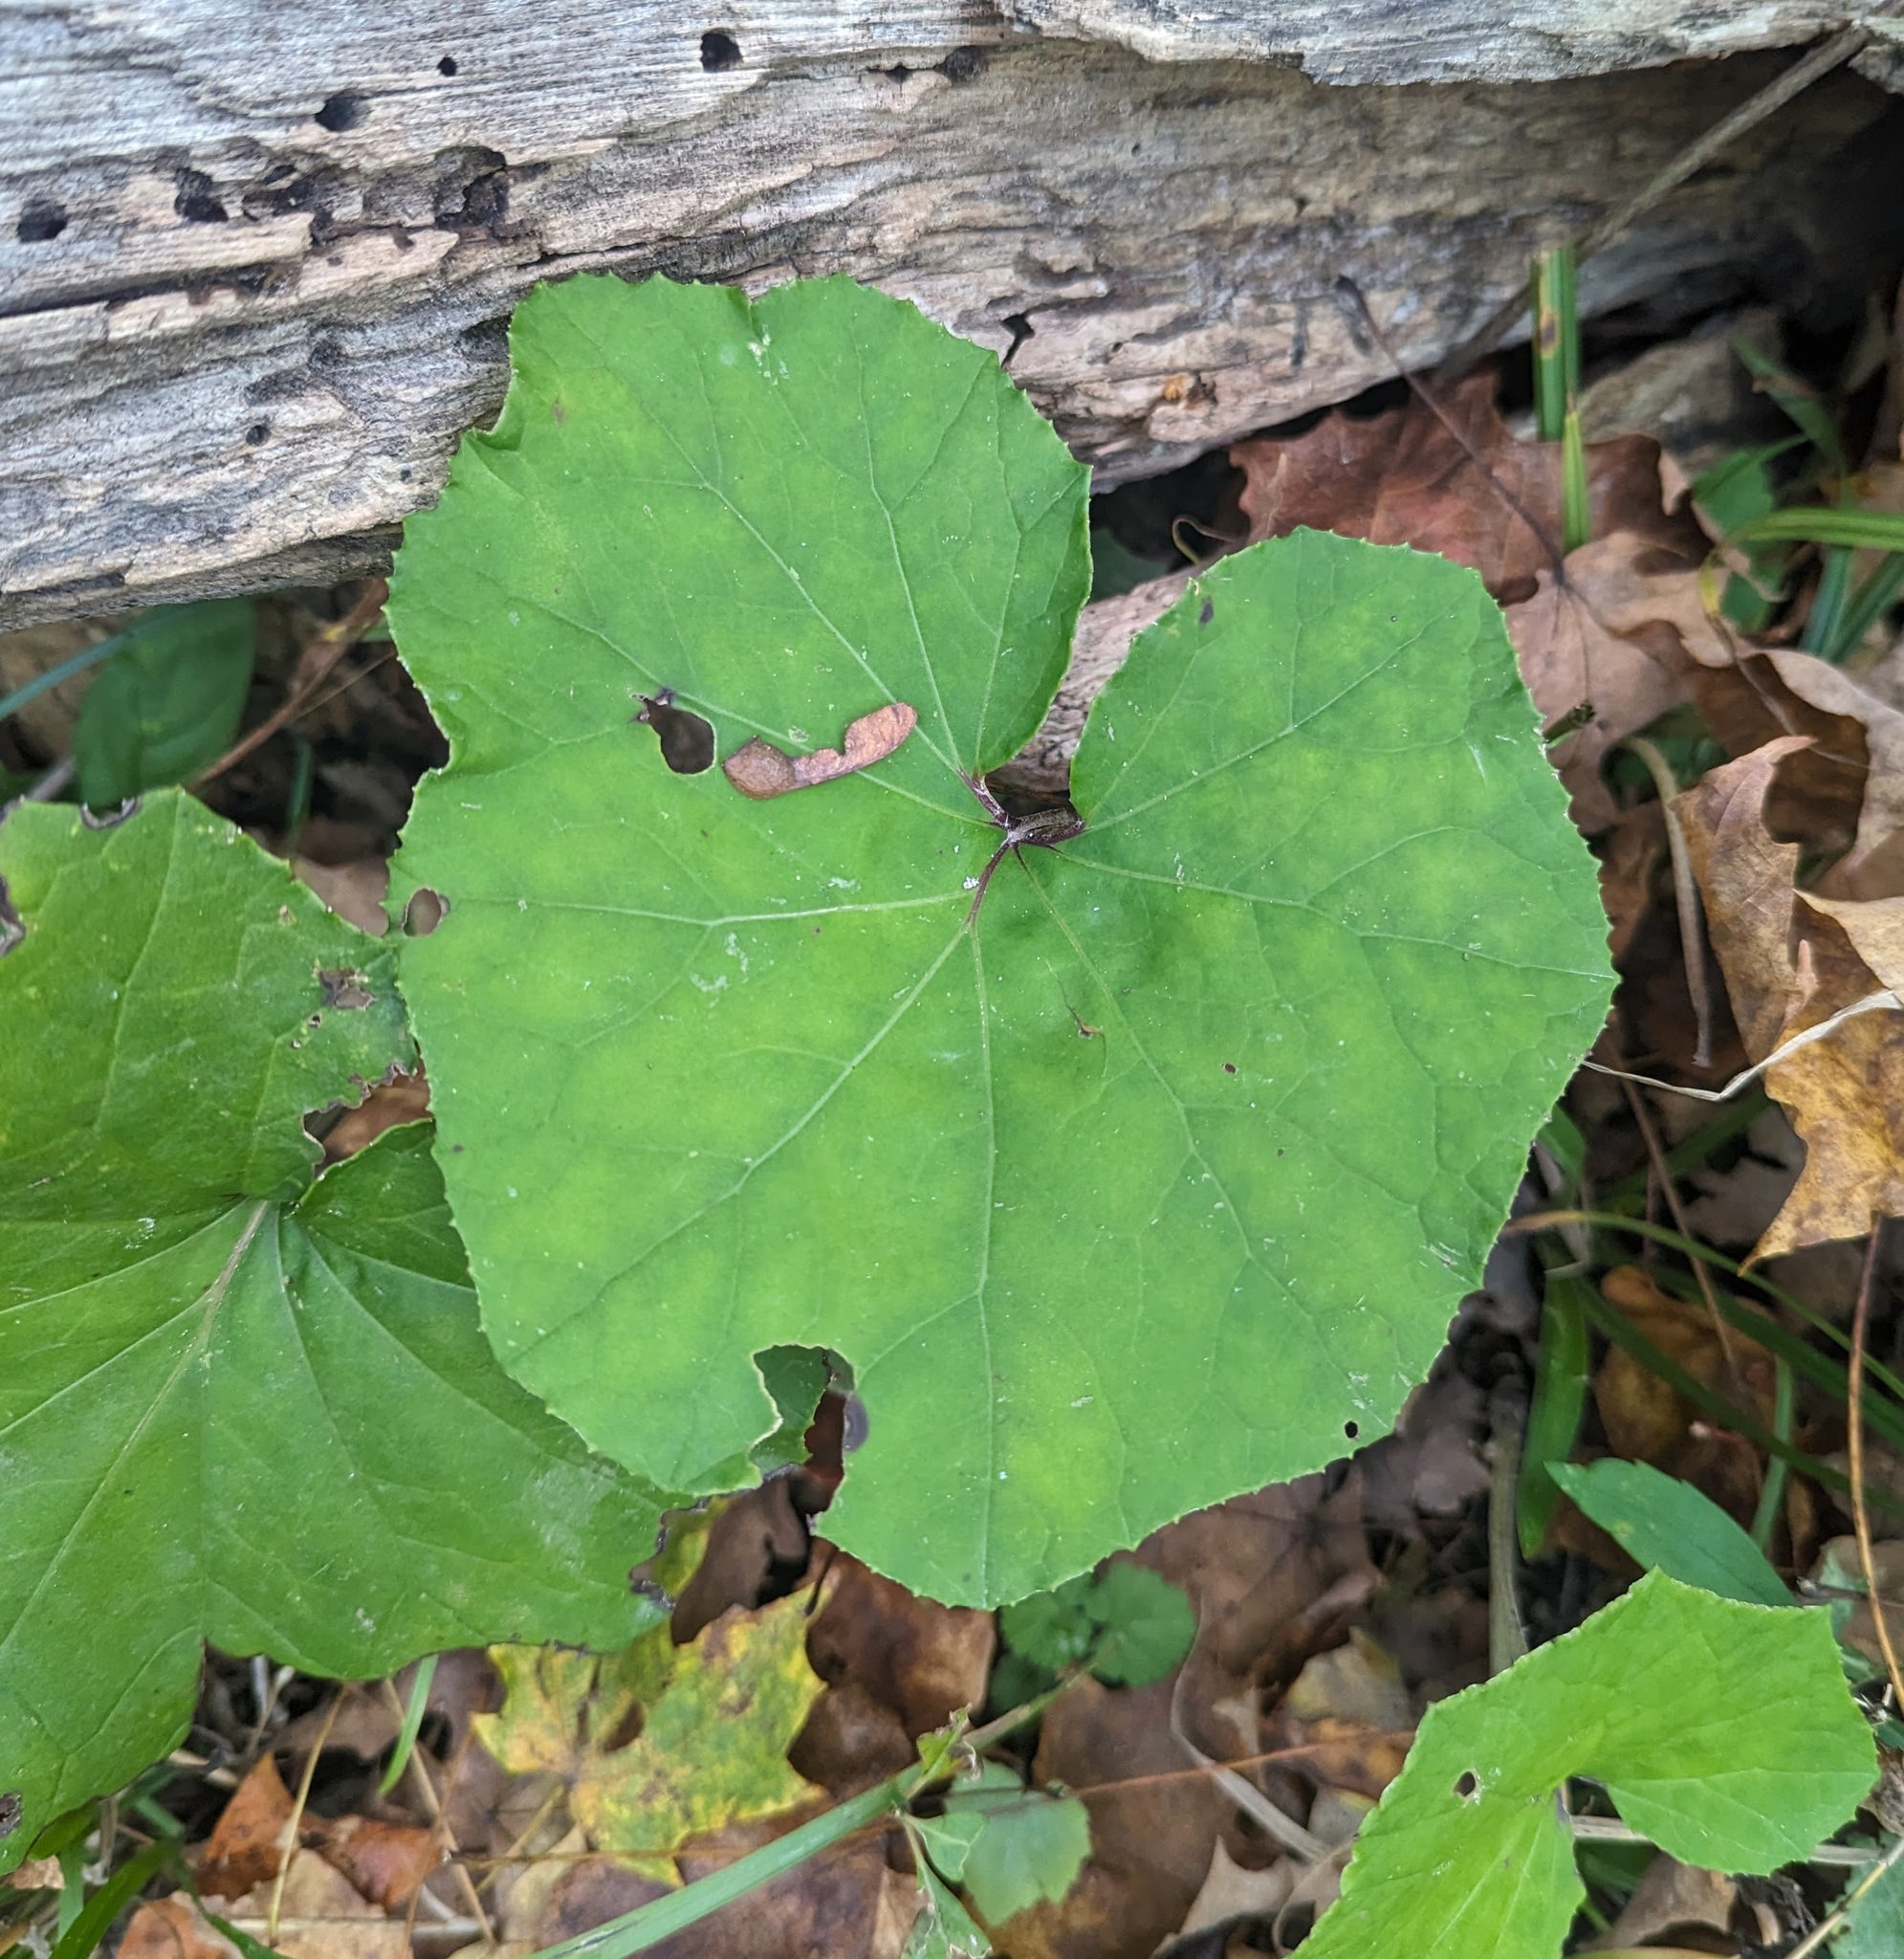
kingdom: Plantae
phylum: Tracheophyta
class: Magnoliopsida
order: Asterales
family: Asteraceae
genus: Tussilago
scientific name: Tussilago farfara
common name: Coltsfoot
